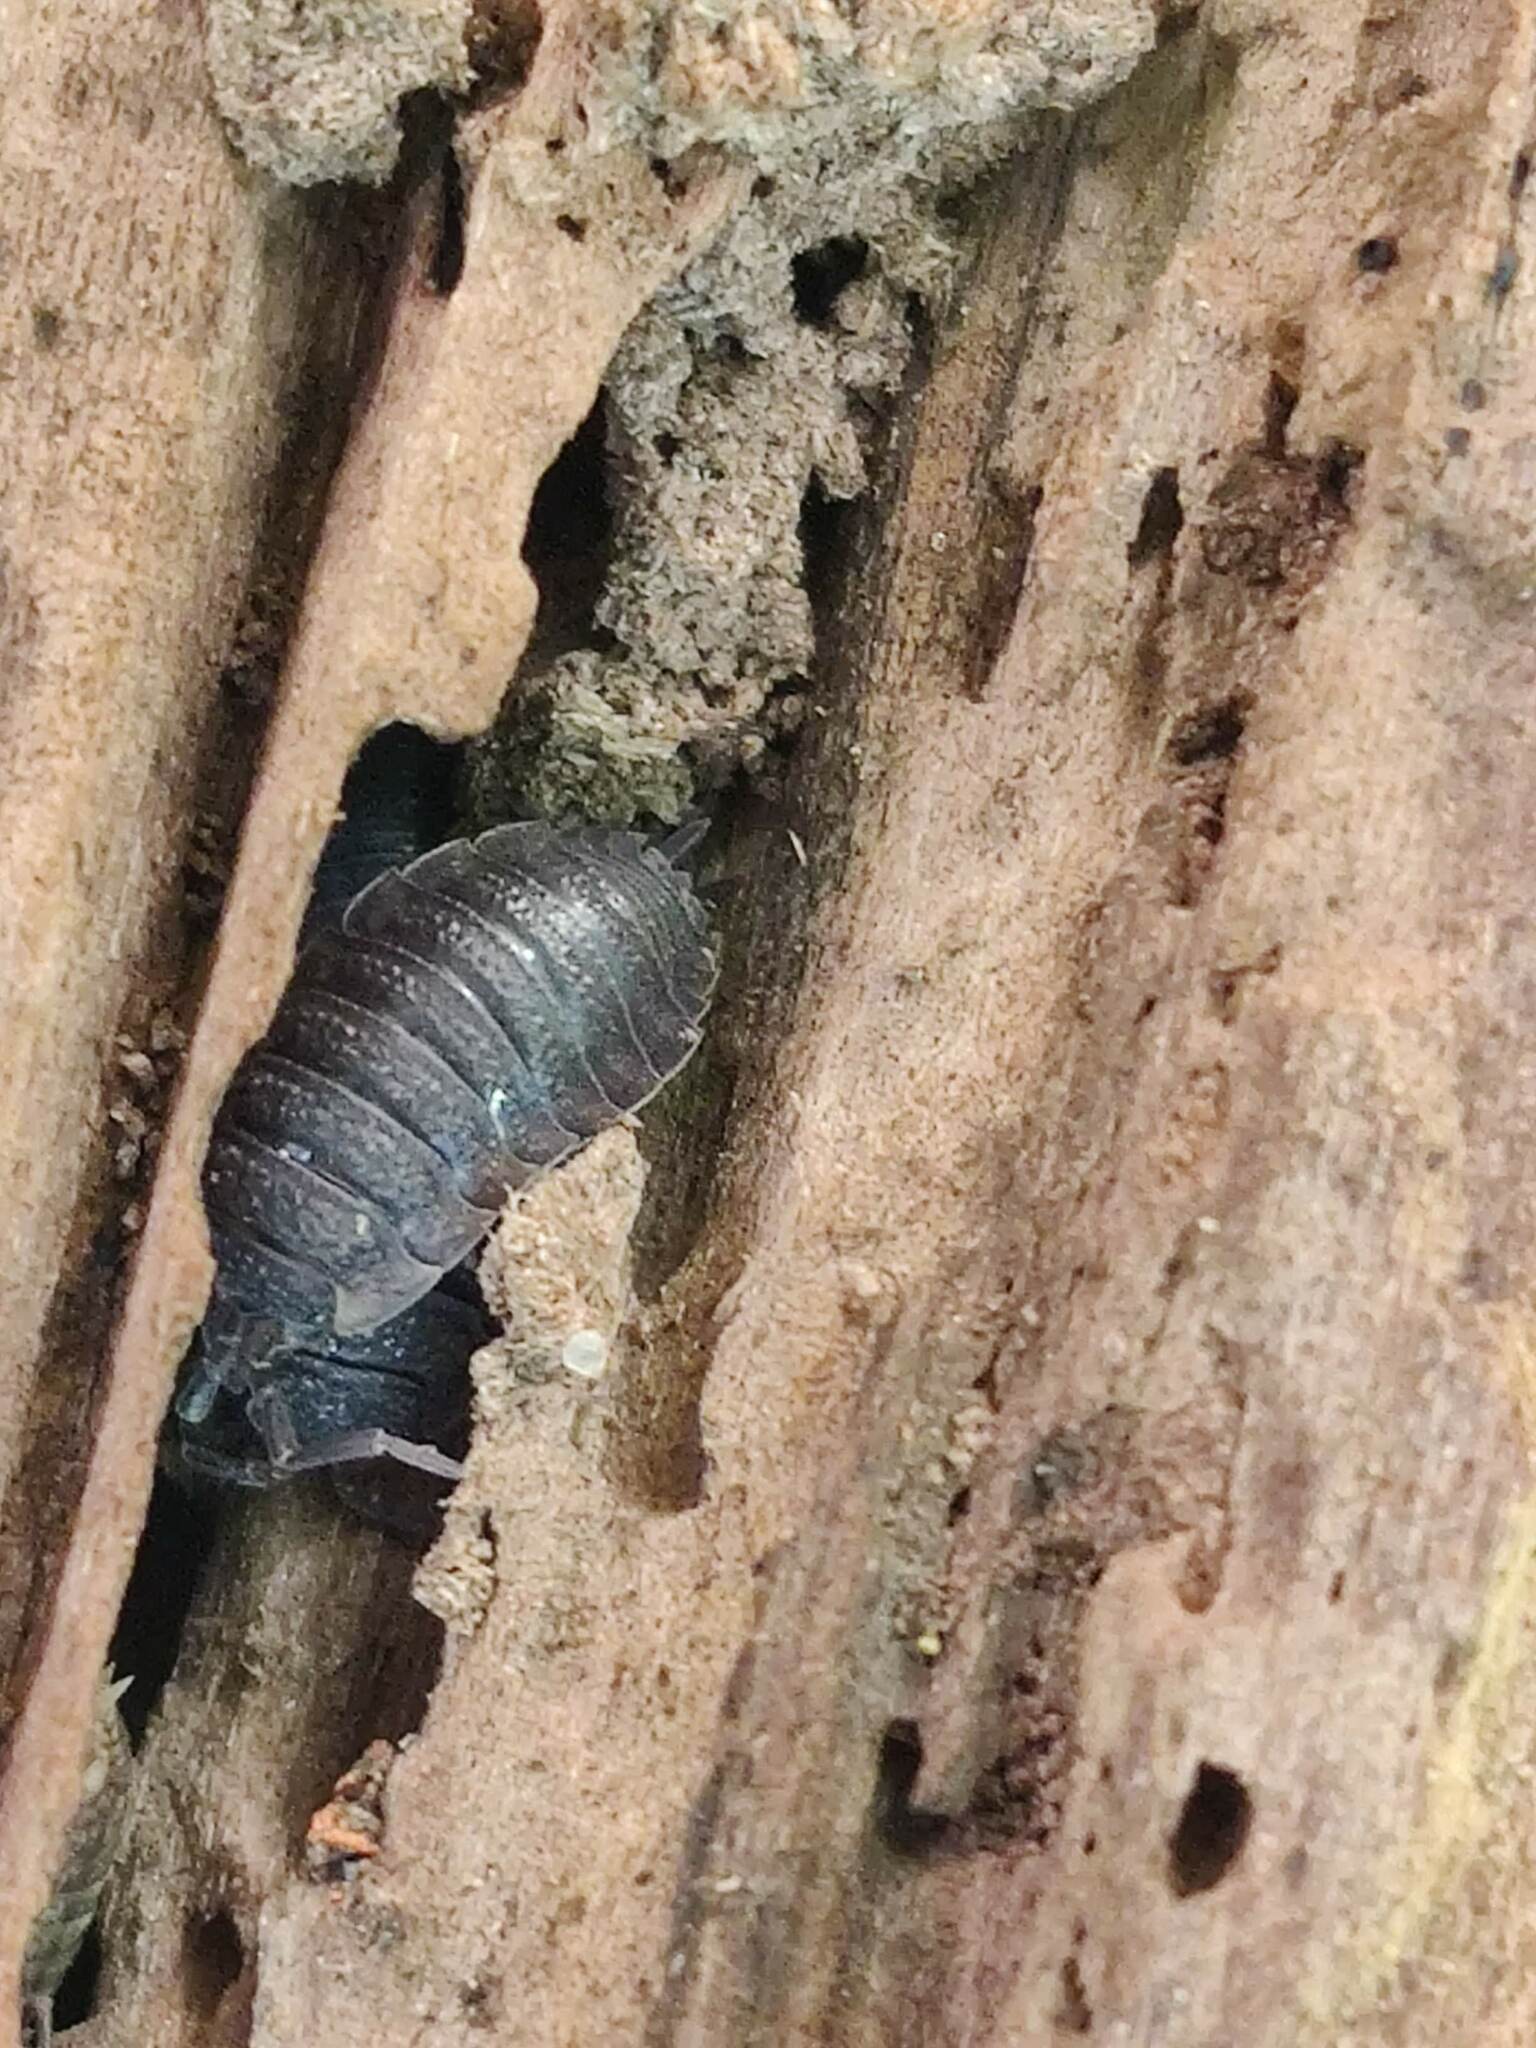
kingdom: Animalia
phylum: Arthropoda
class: Malacostraca
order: Isopoda
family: Porcellionidae
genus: Porcellio
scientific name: Porcellio scaber
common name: Common rough woodlouse
